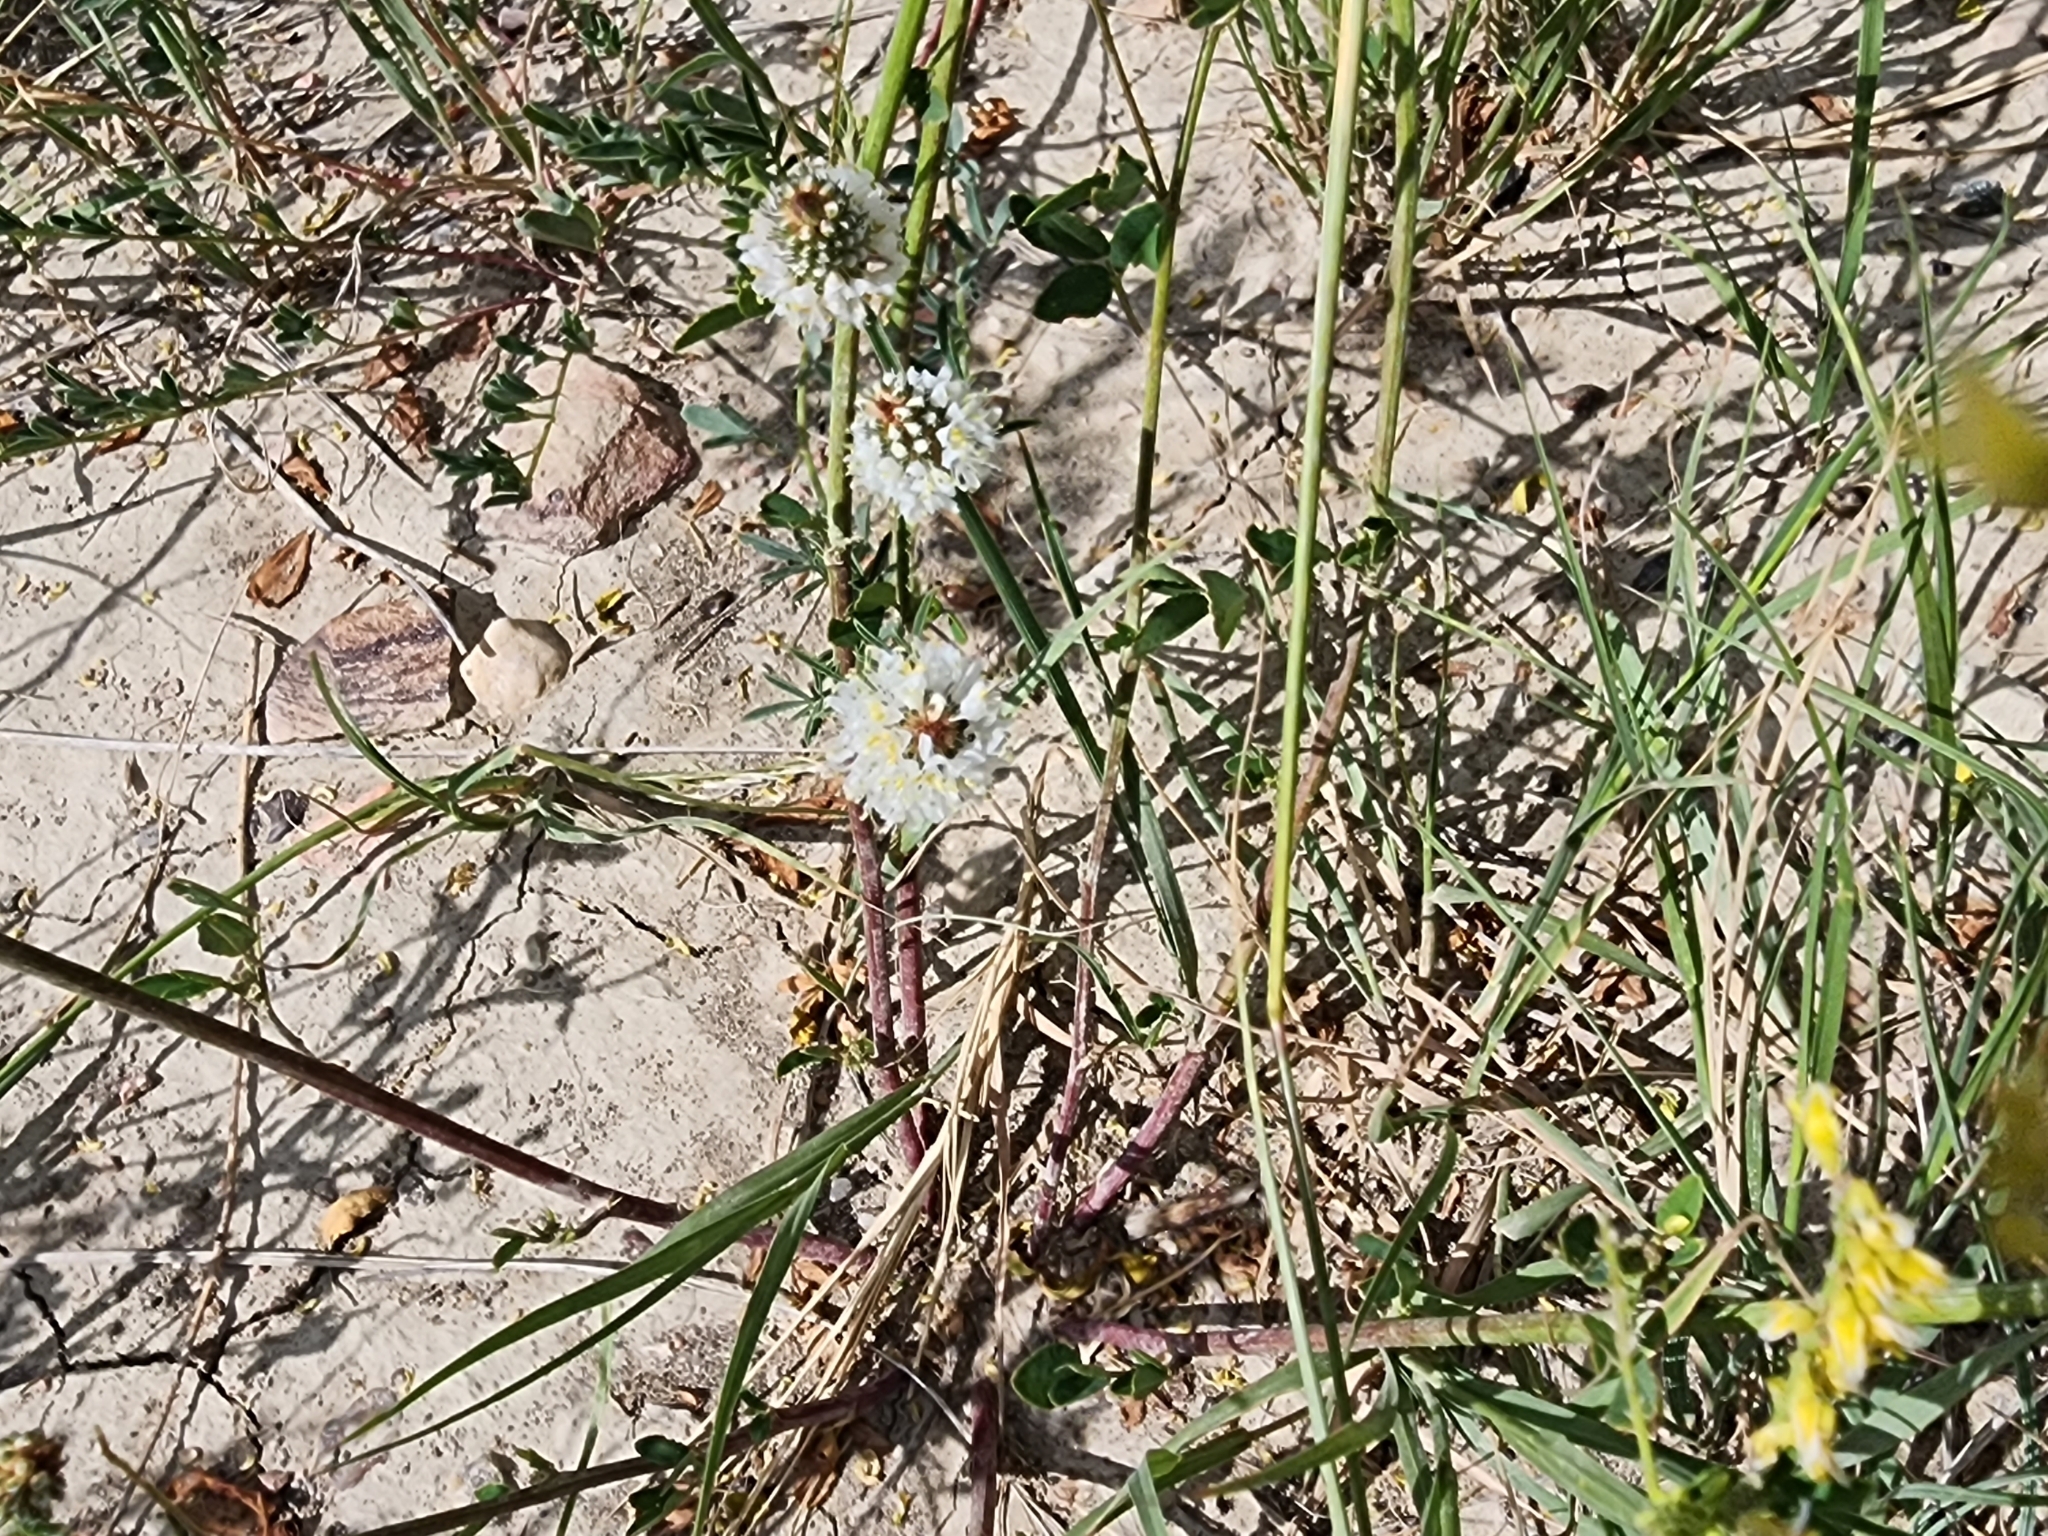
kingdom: Plantae
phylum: Tracheophyta
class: Magnoliopsida
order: Fabales
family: Fabaceae
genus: Dalea
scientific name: Dalea candida
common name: White prairie-clover
